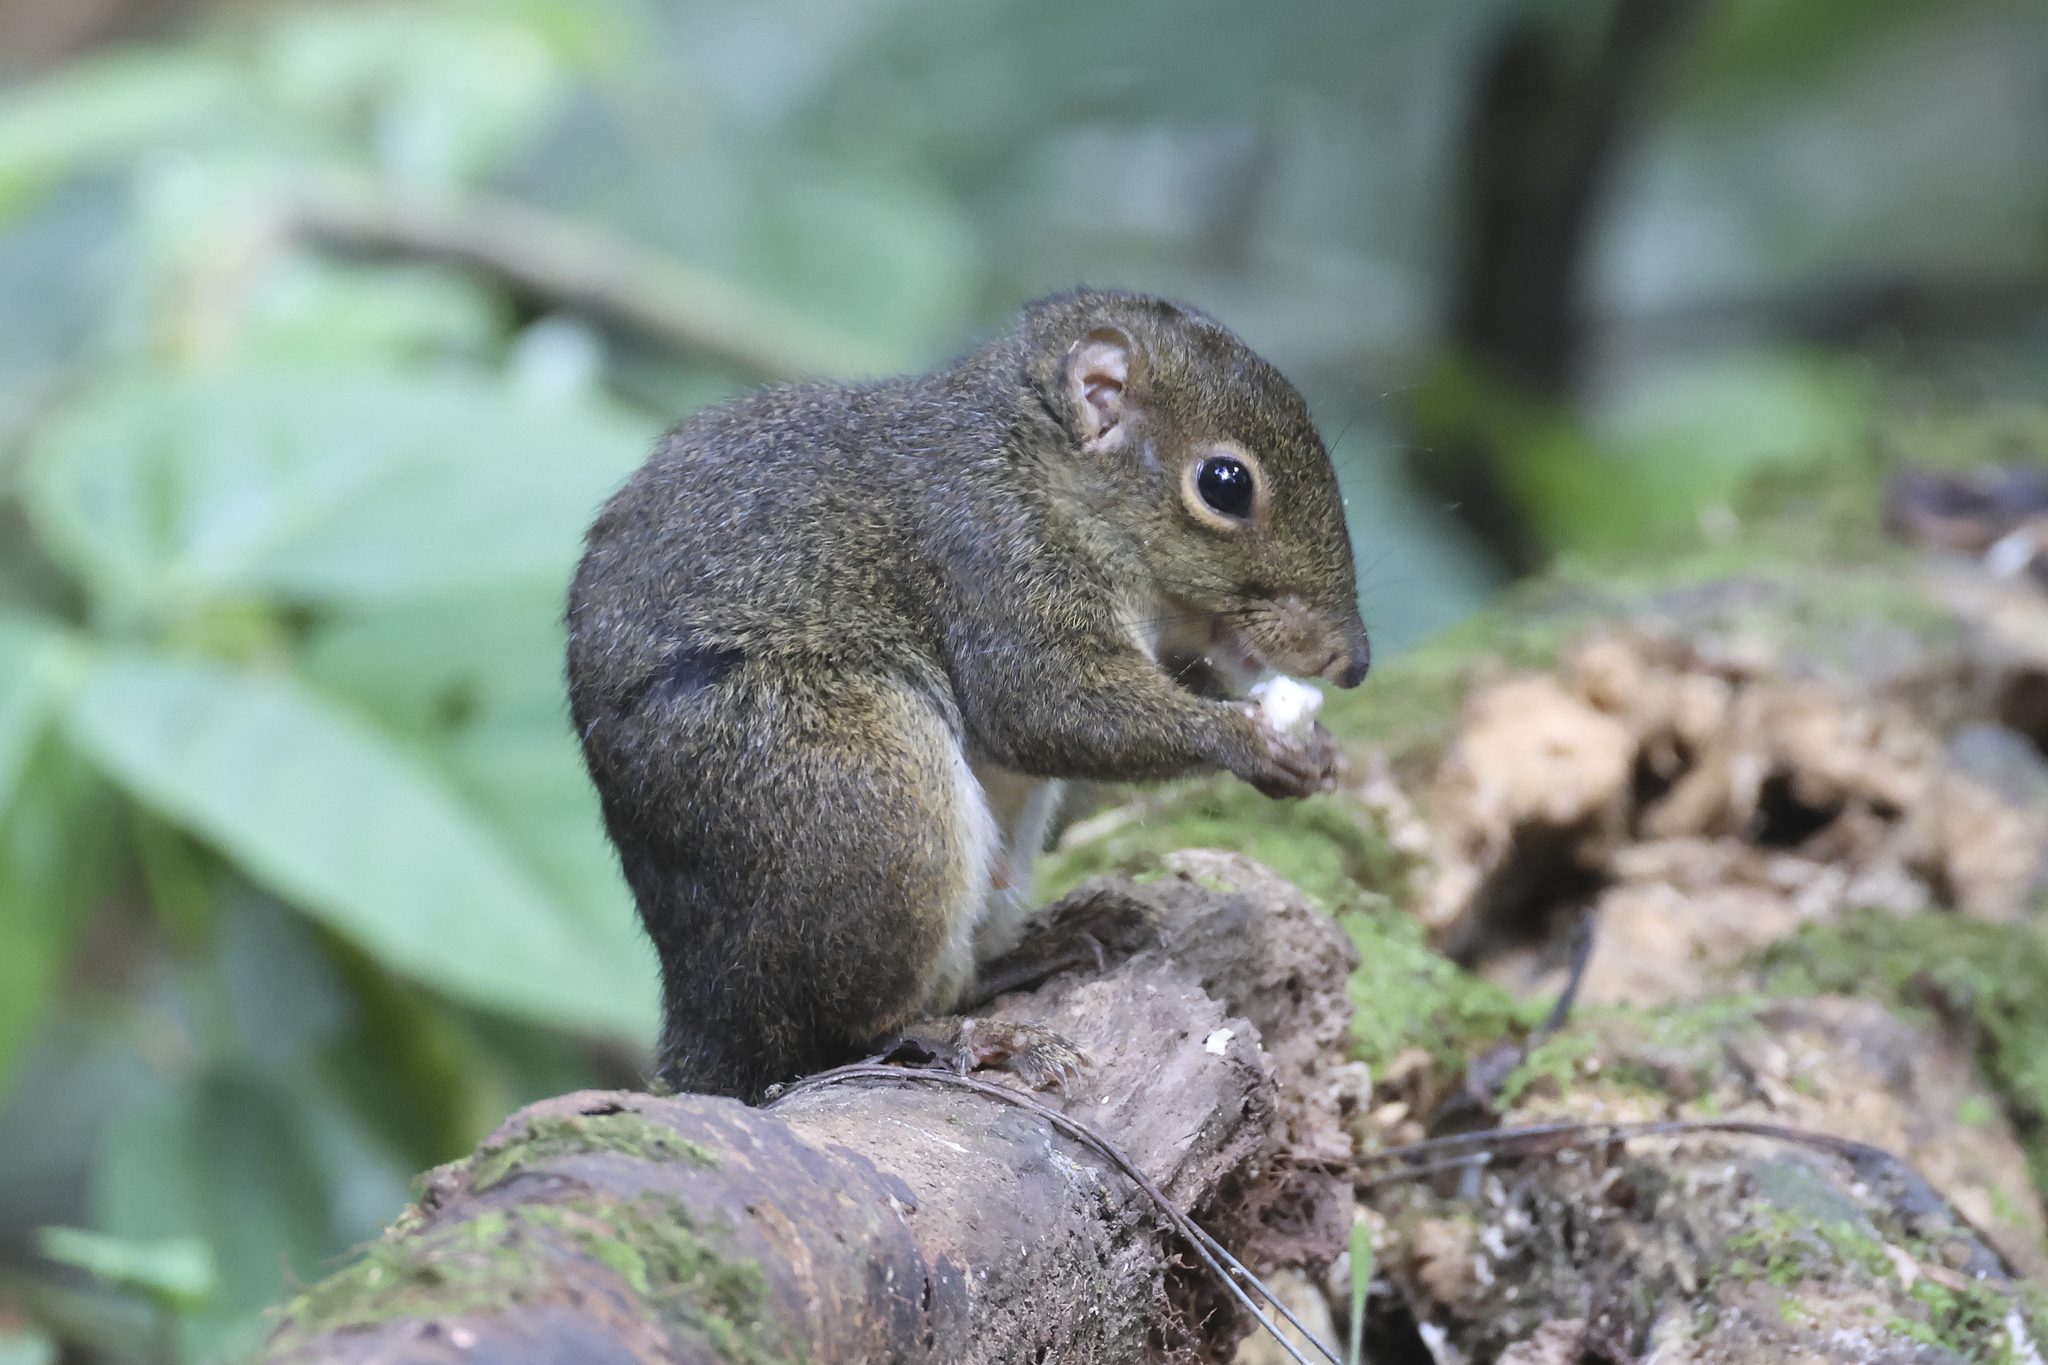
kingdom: Animalia
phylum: Chordata
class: Mammalia
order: Rodentia
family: Sciuridae
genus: Sundasciurus
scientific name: Sundasciurus everetti
